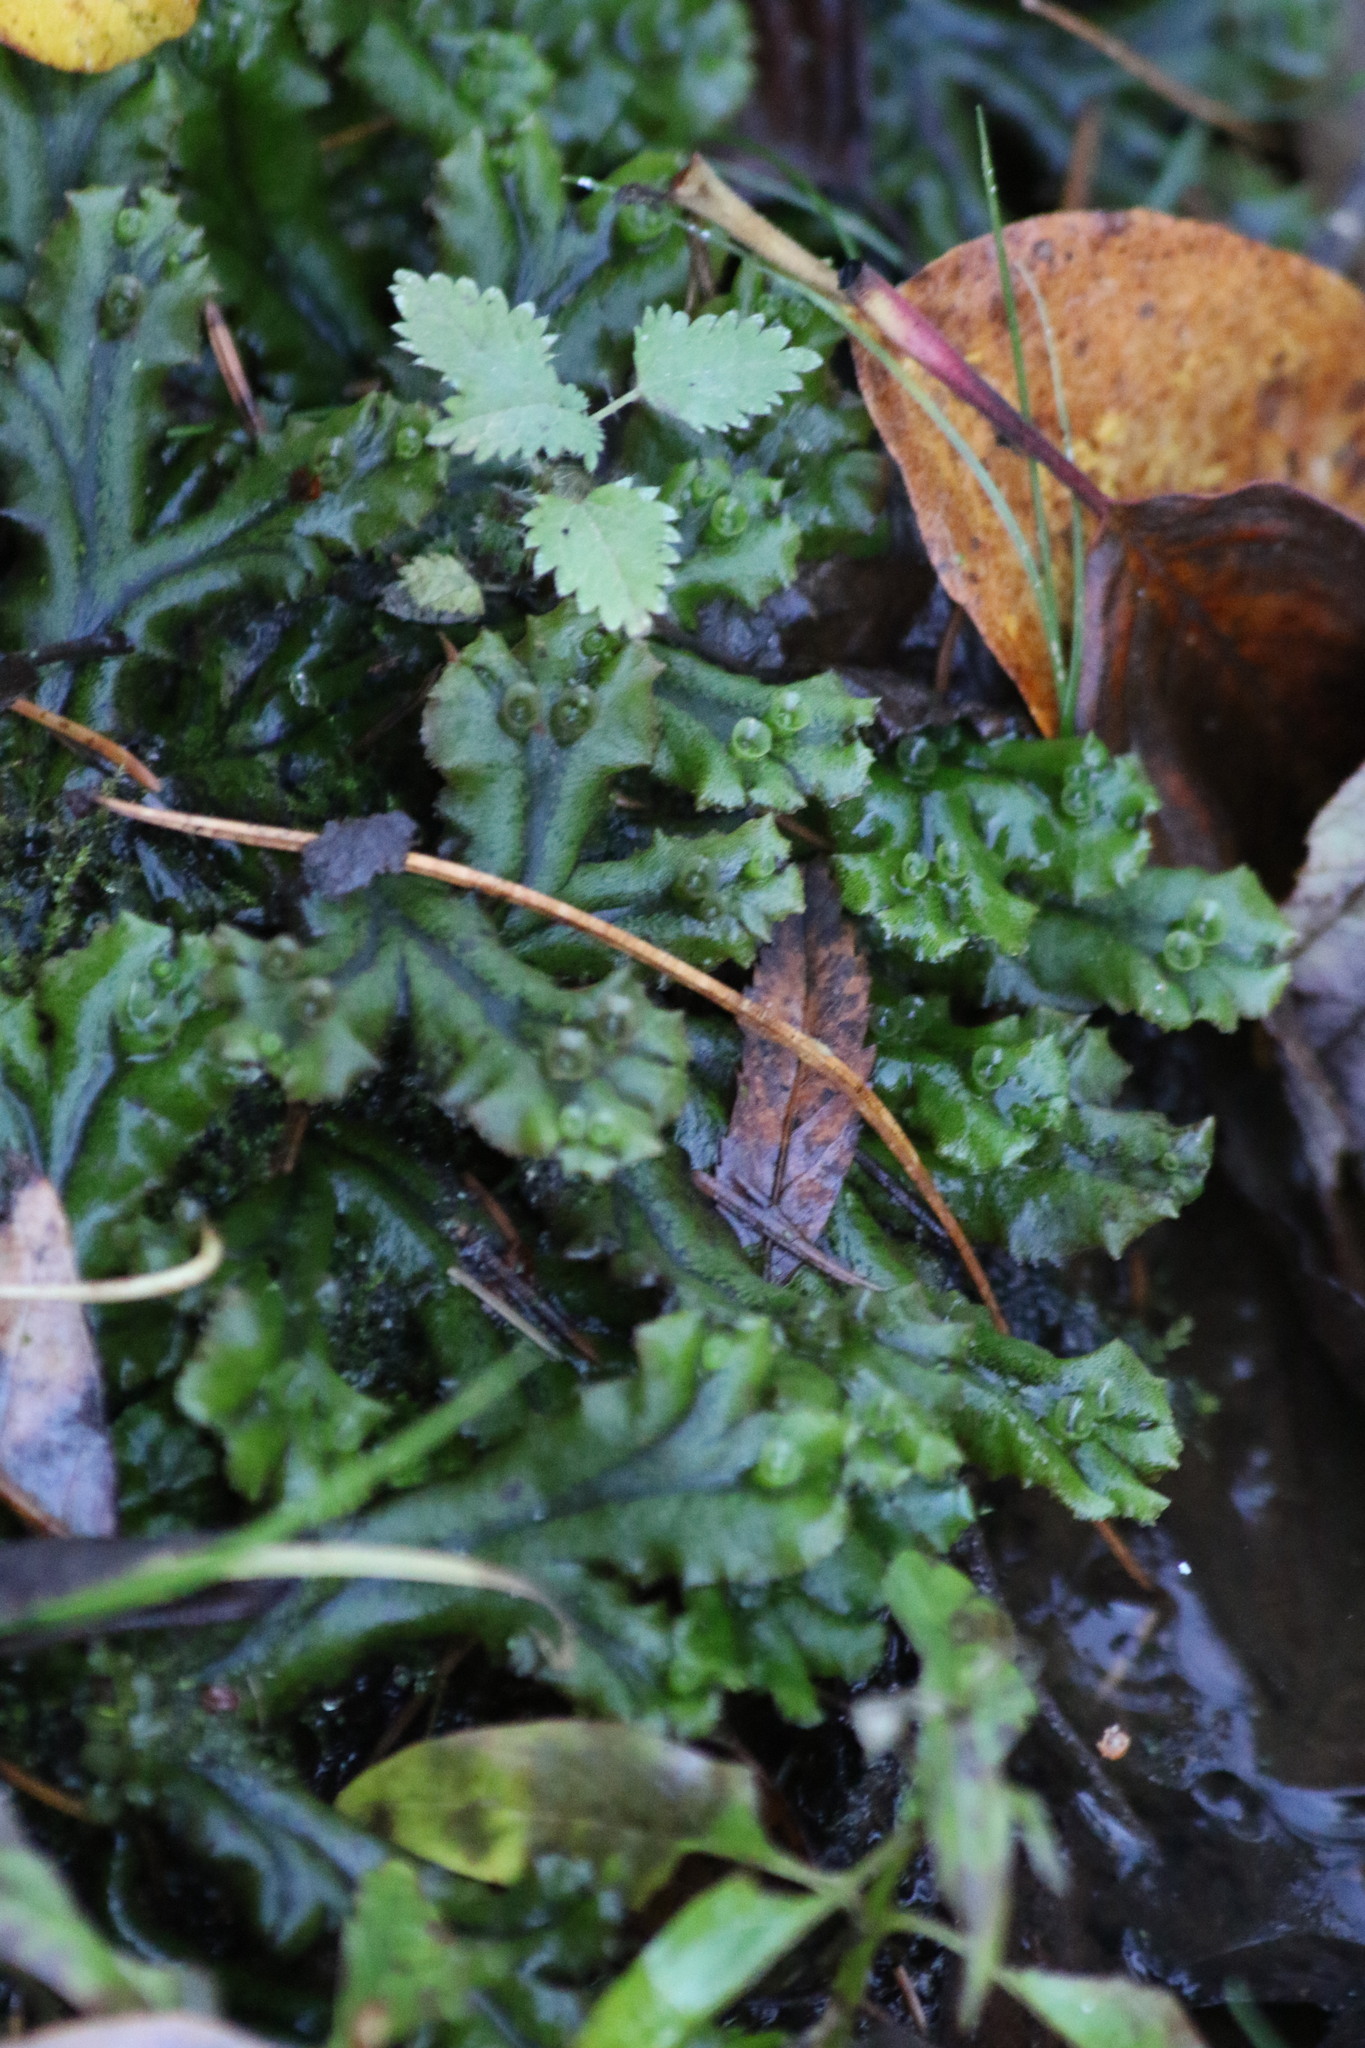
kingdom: Plantae
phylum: Marchantiophyta
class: Marchantiopsida
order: Marchantiales
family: Marchantiaceae
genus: Marchantia
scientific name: Marchantia polymorpha
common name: Common liverwort
